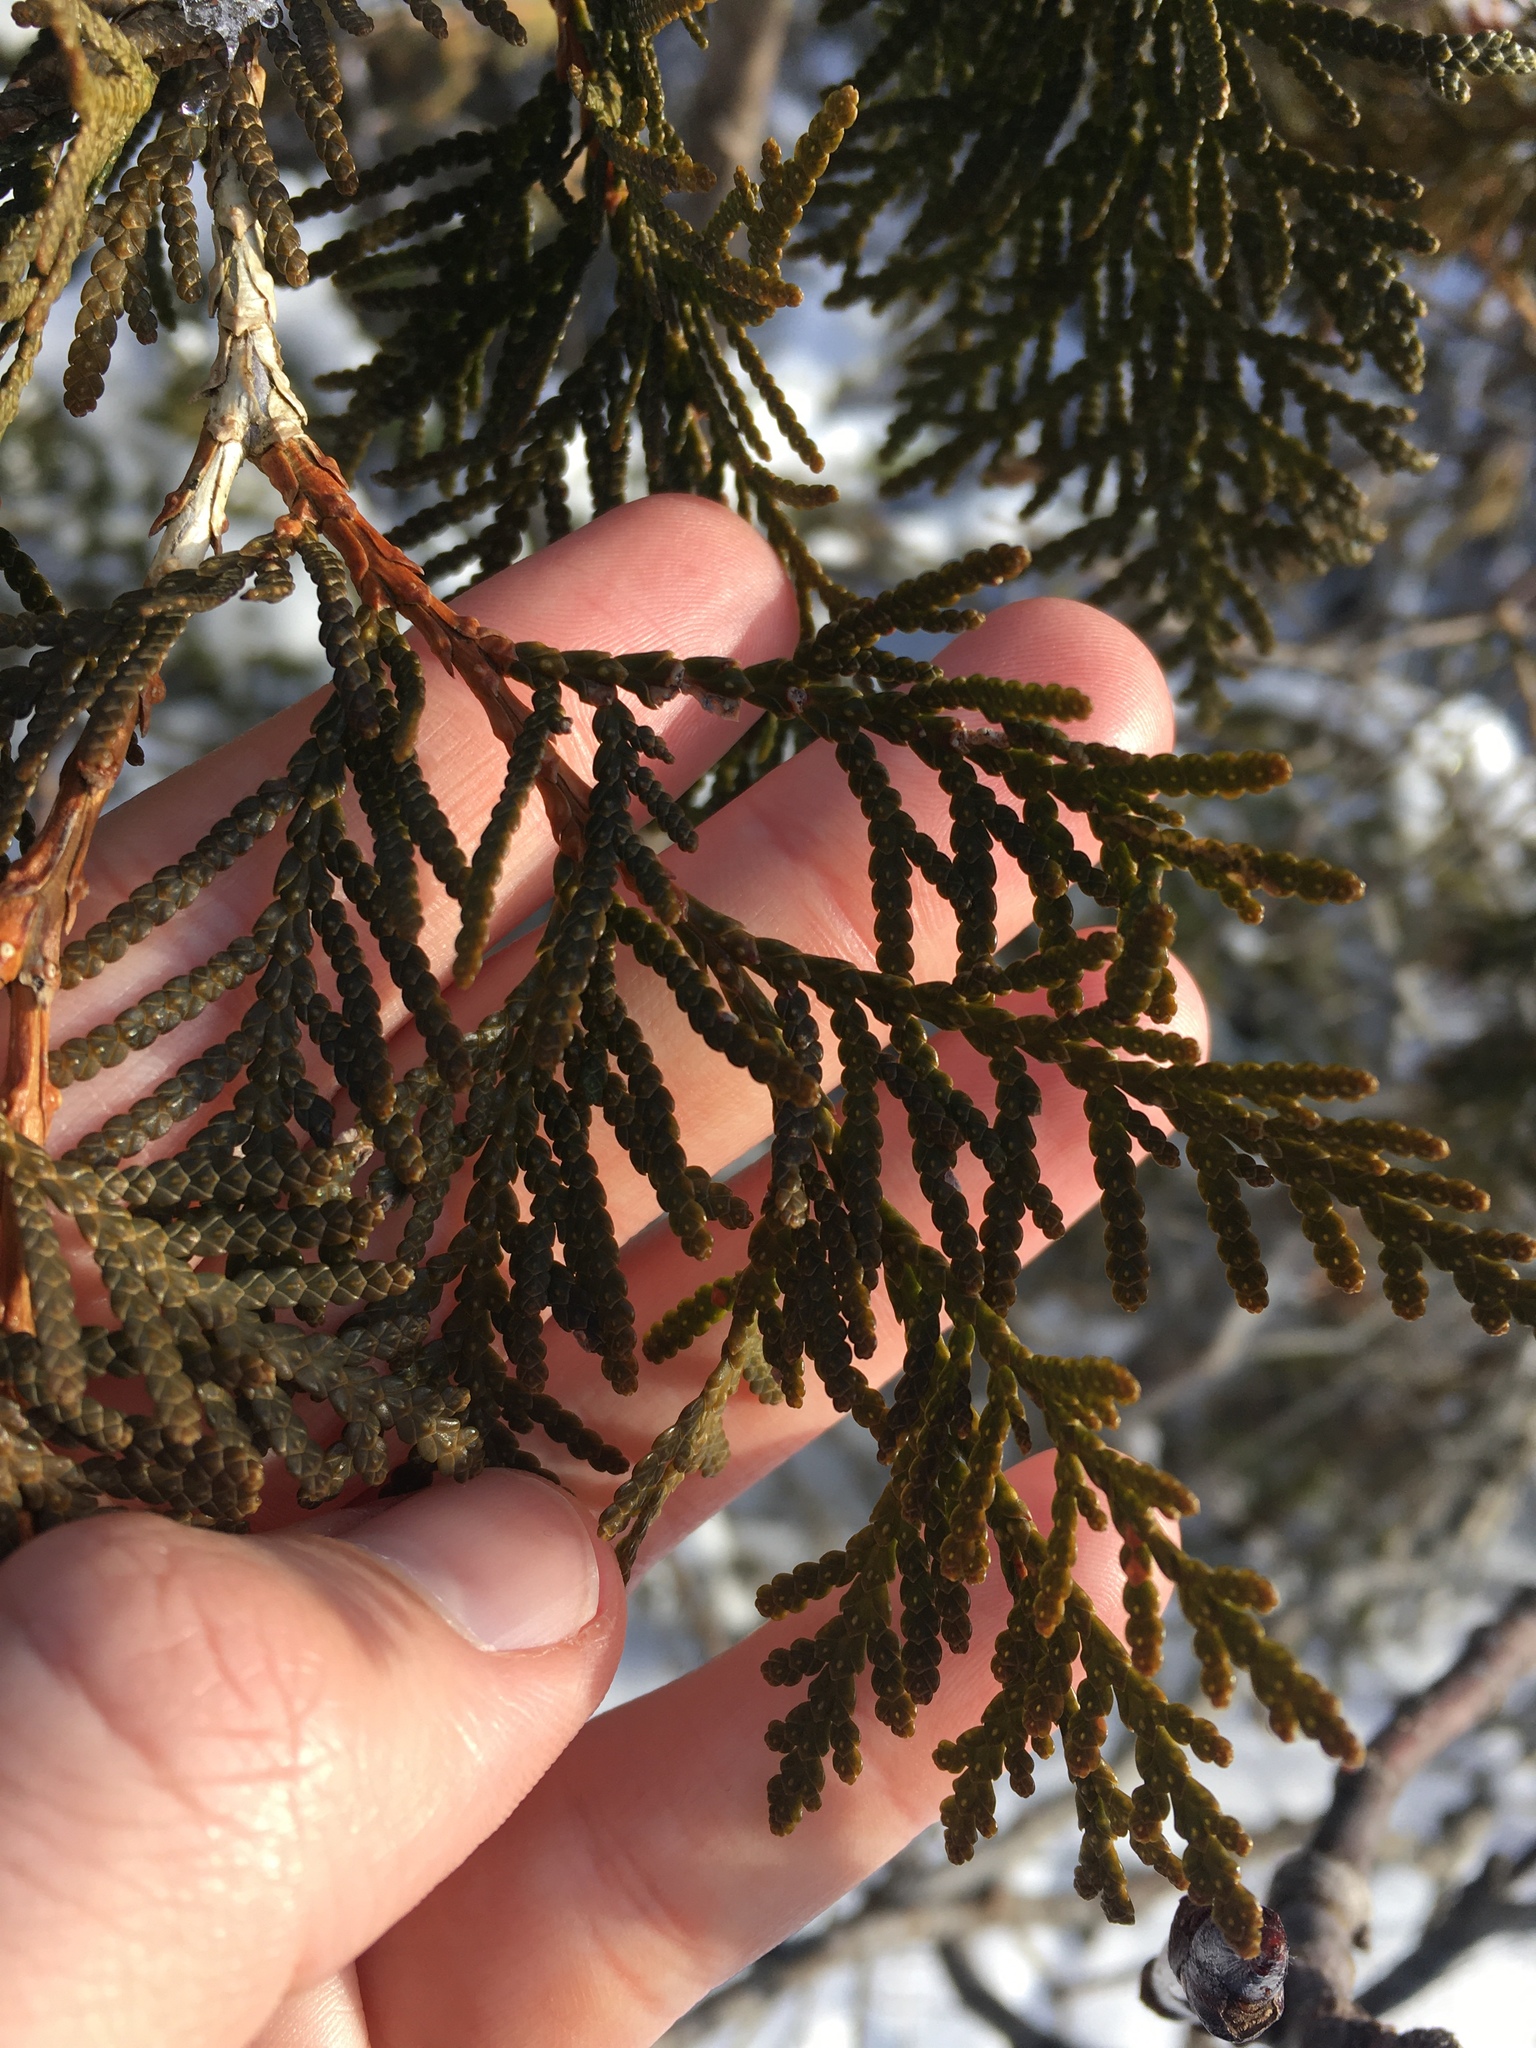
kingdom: Plantae
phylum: Tracheophyta
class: Pinopsida
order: Pinales
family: Cupressaceae
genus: Thuja
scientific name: Thuja occidentalis
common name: Northern white-cedar
